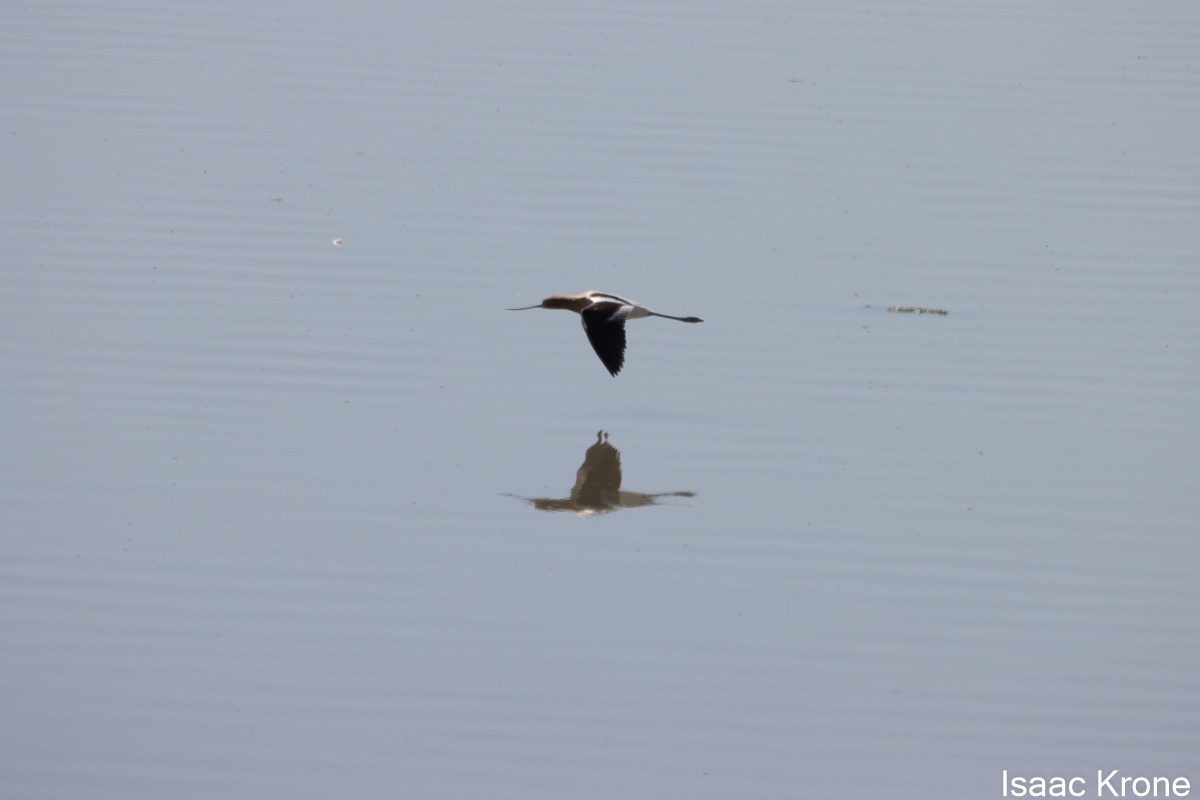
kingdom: Animalia
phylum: Chordata
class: Aves
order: Charadriiformes
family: Recurvirostridae
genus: Recurvirostra
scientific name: Recurvirostra americana
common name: American avocet
